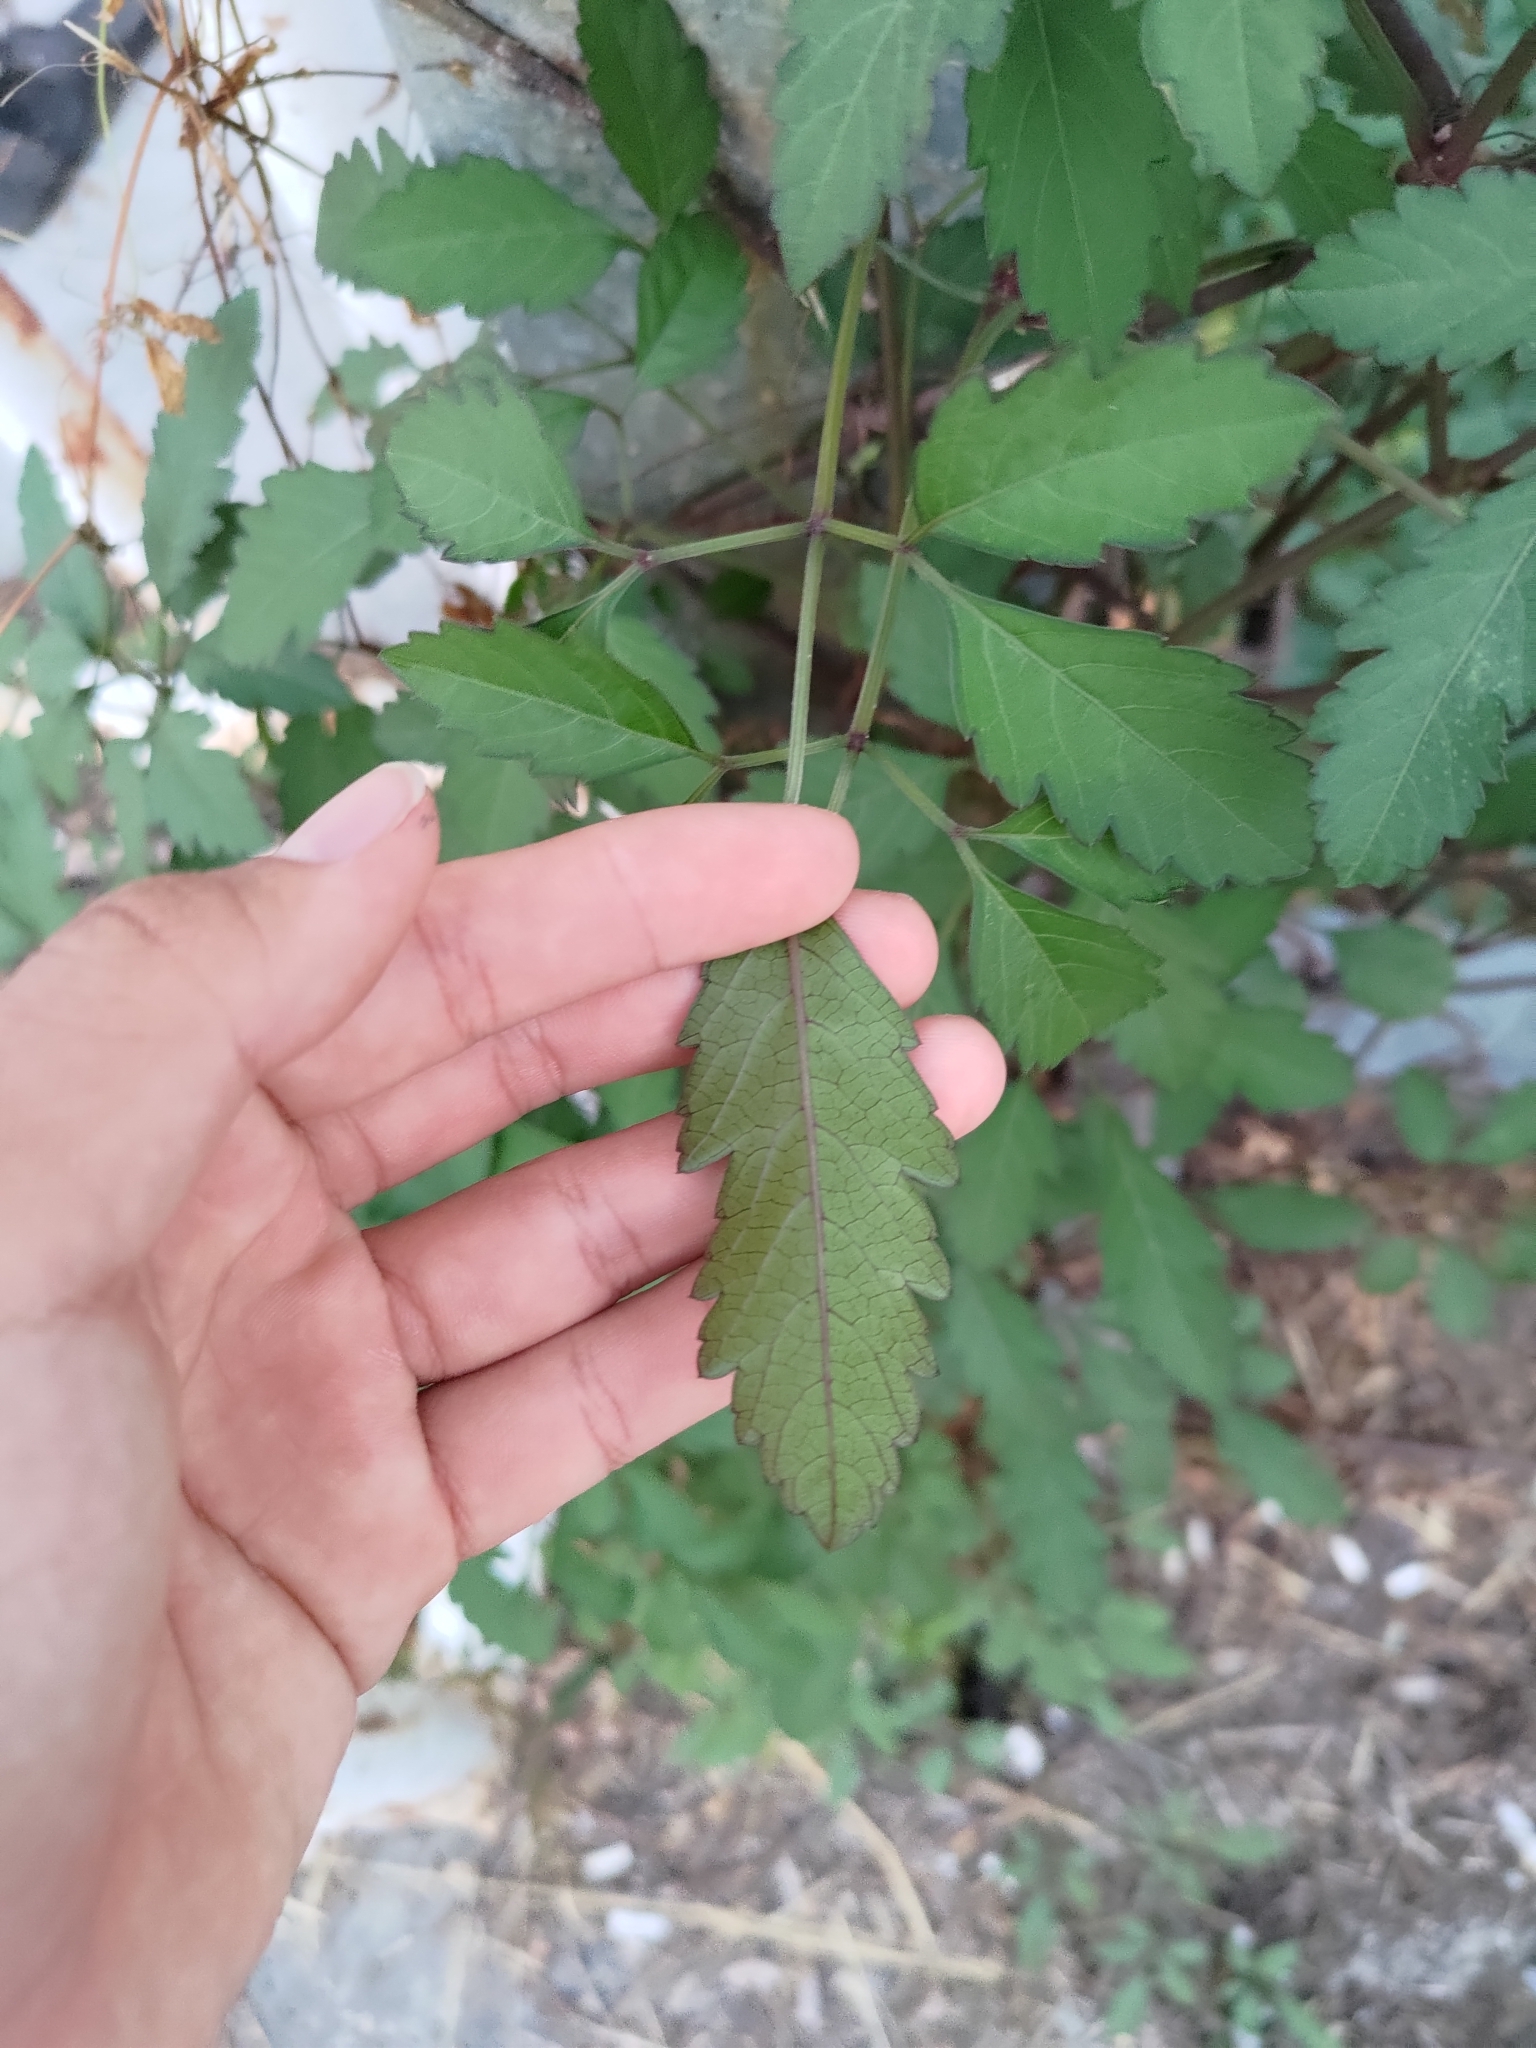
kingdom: Plantae
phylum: Tracheophyta
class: Magnoliopsida
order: Vitales
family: Vitaceae
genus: Causonis
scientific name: Causonis japonica
